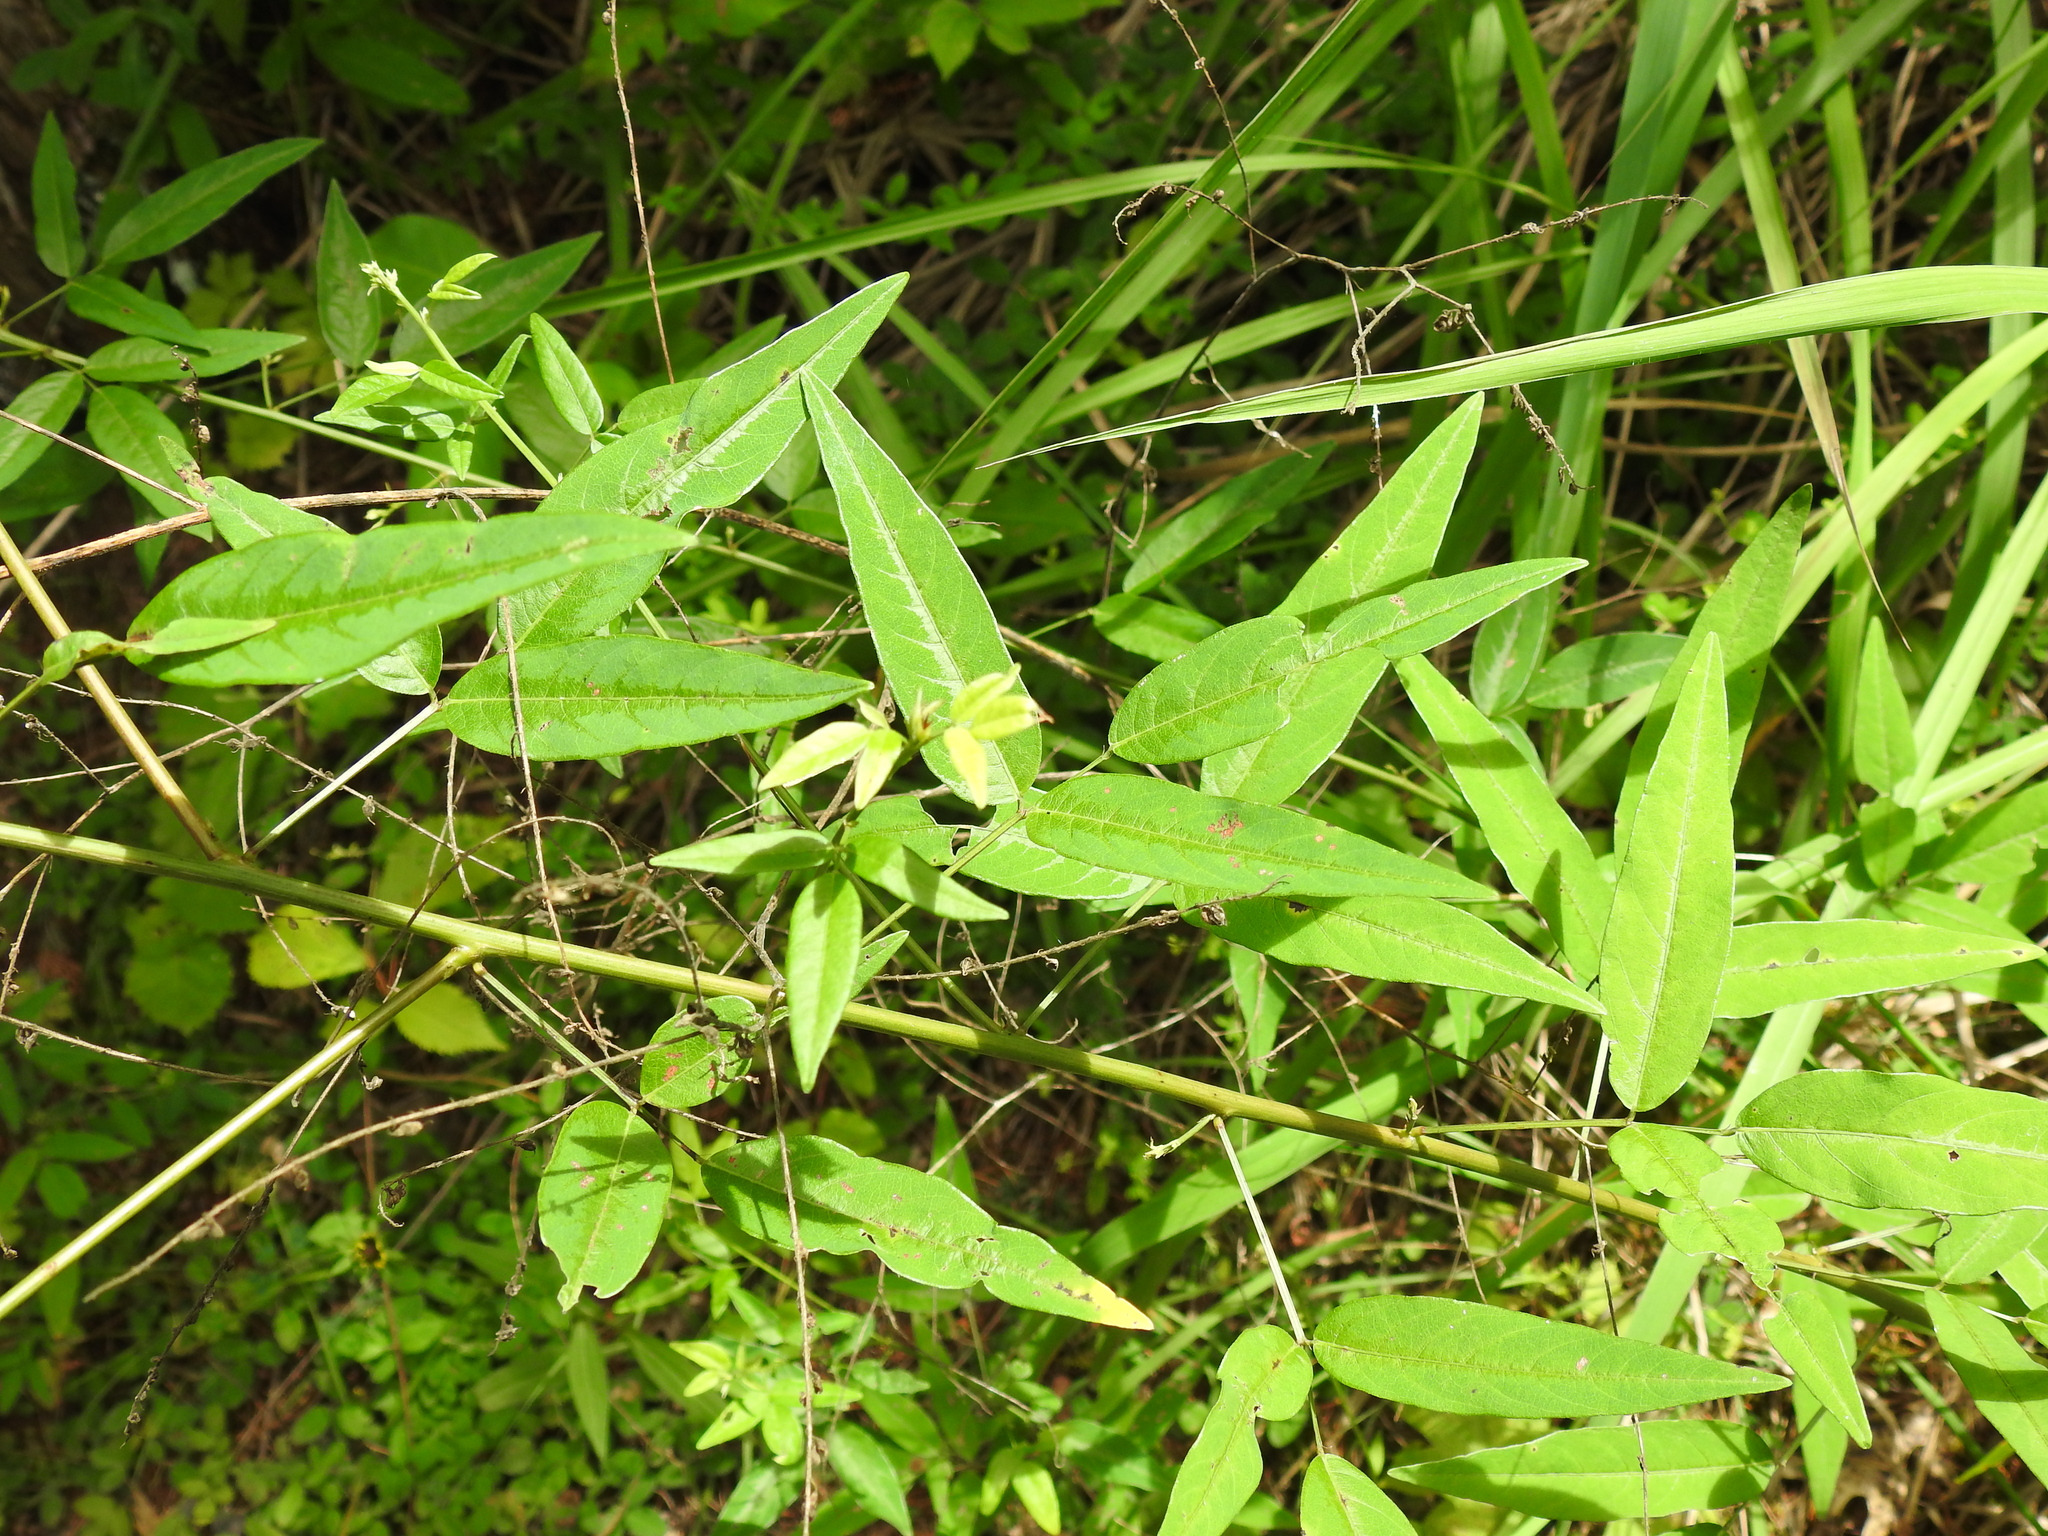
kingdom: Plantae
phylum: Tracheophyta
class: Magnoliopsida
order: Fabales
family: Fabaceae
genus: Desmodium
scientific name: Desmodium paniculatum
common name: Panicled tick-clover
